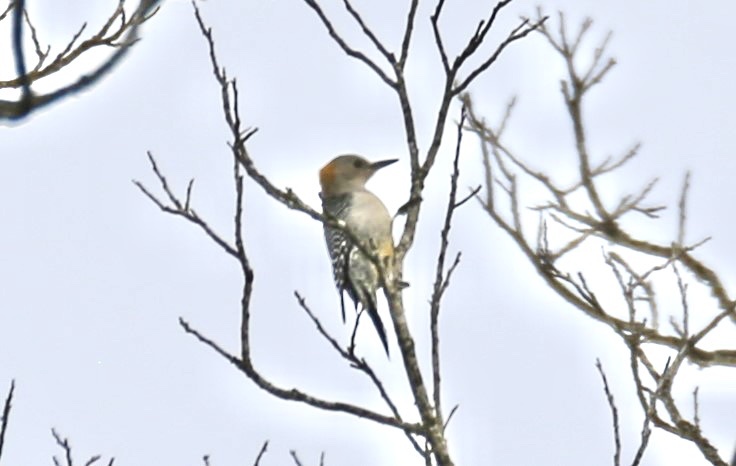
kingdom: Animalia
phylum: Chordata
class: Aves
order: Piciformes
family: Picidae
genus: Melanerpes
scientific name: Melanerpes aurifrons
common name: Golden-fronted woodpecker
